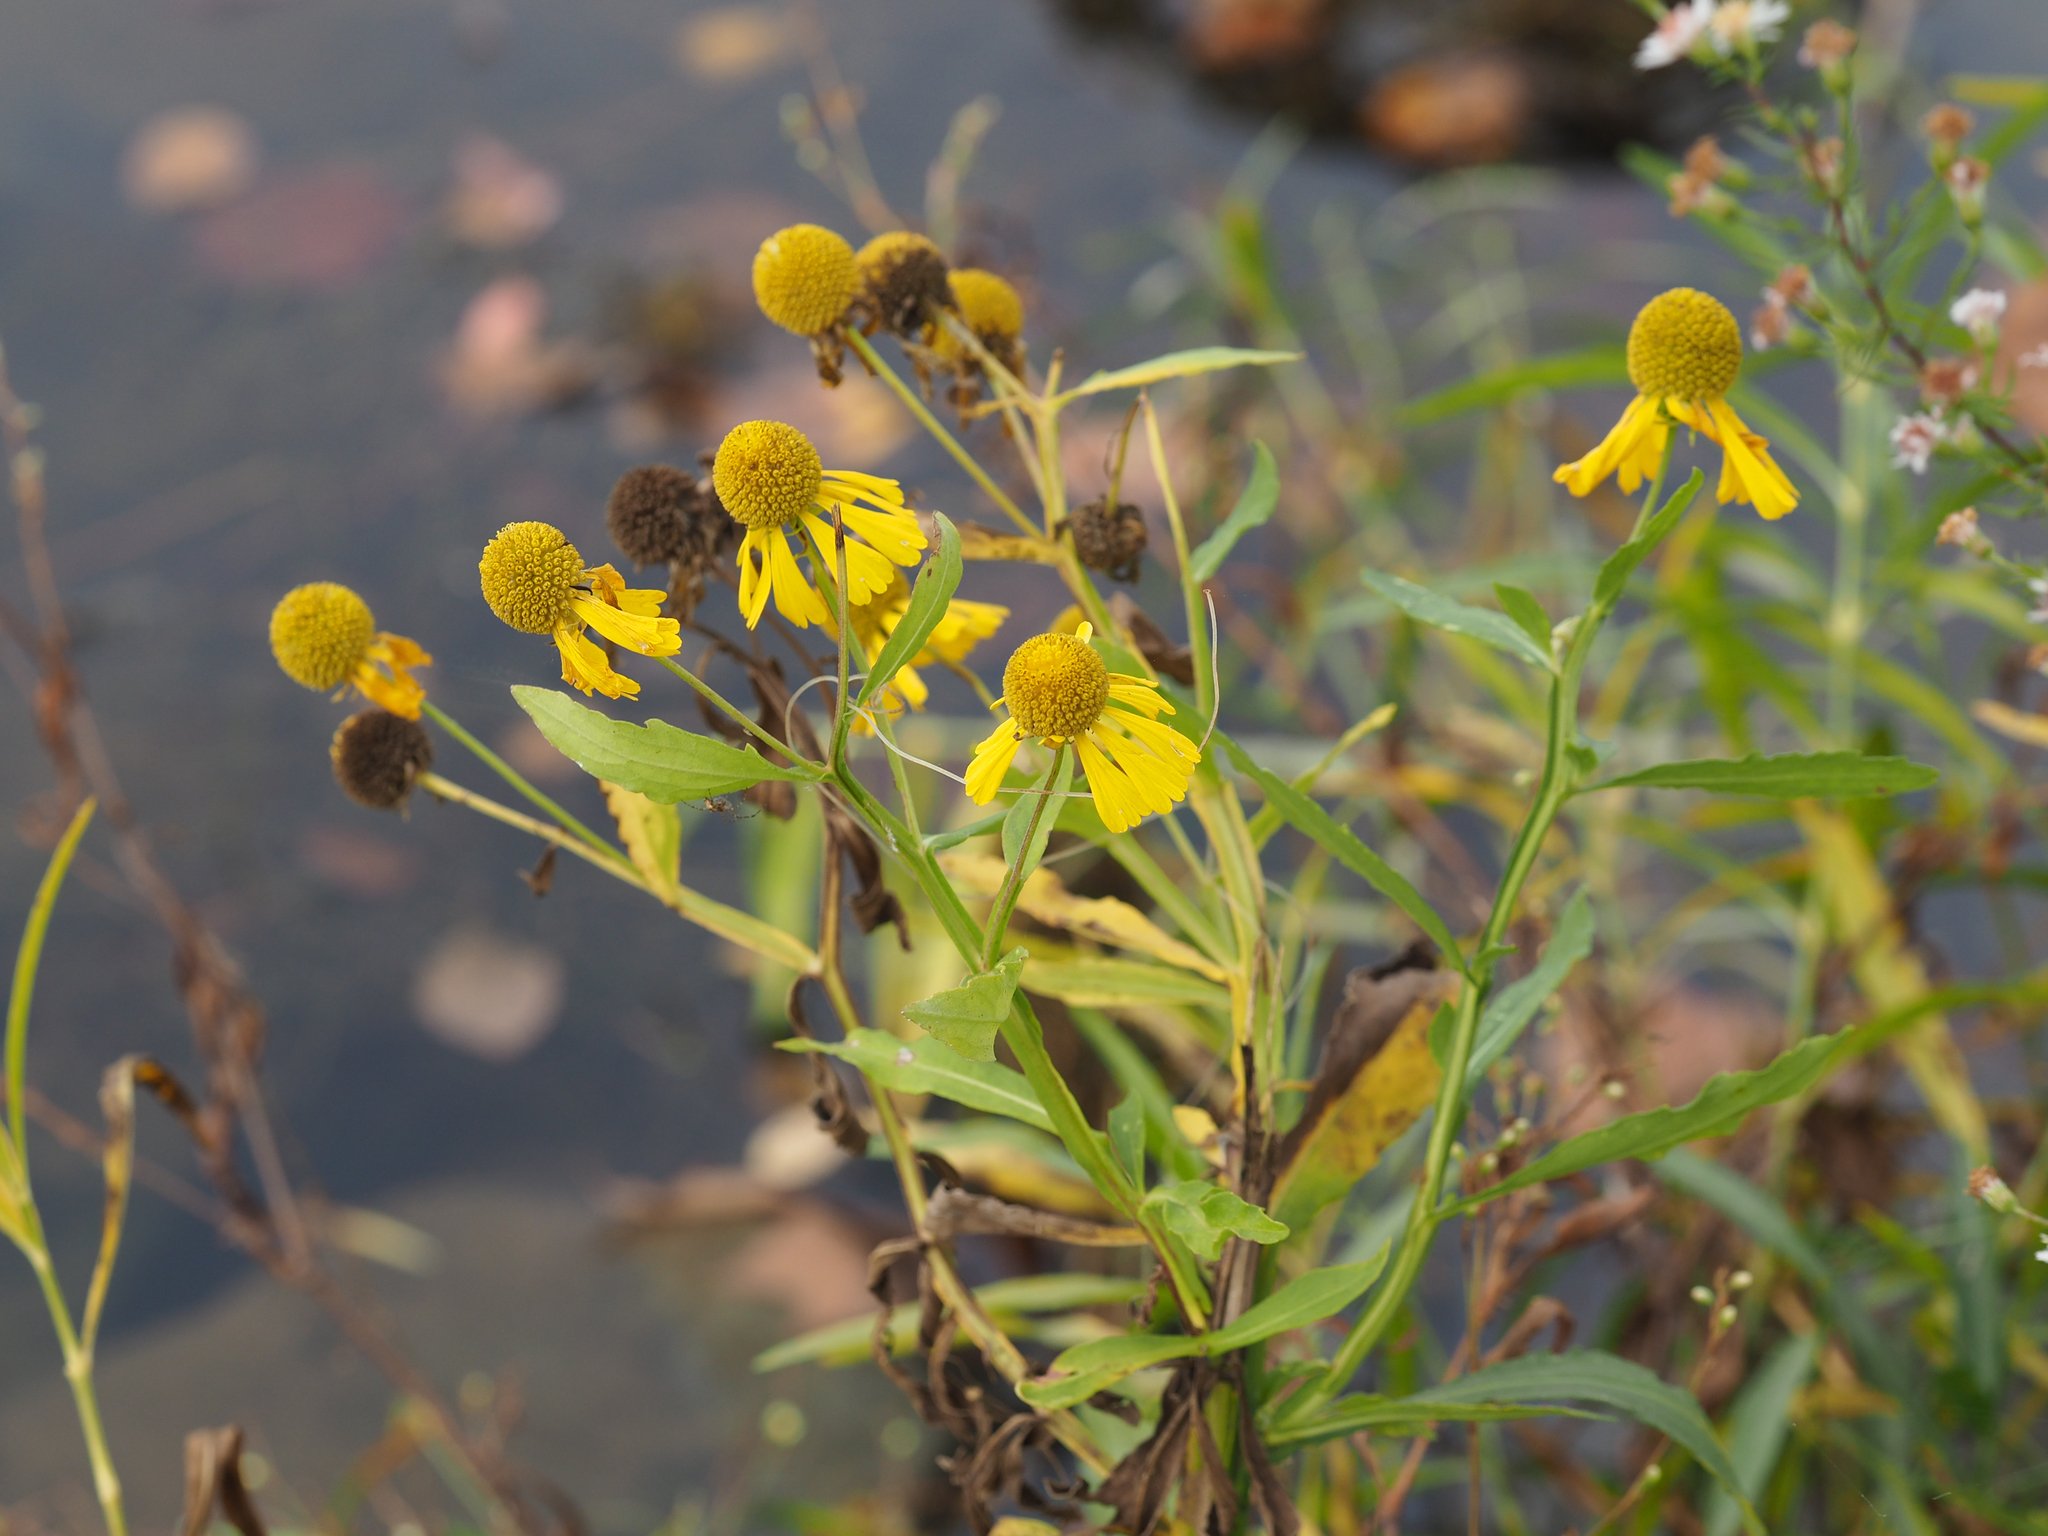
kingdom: Plantae
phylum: Tracheophyta
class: Magnoliopsida
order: Asterales
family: Asteraceae
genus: Helenium
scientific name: Helenium autumnale
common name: Sneezeweed
